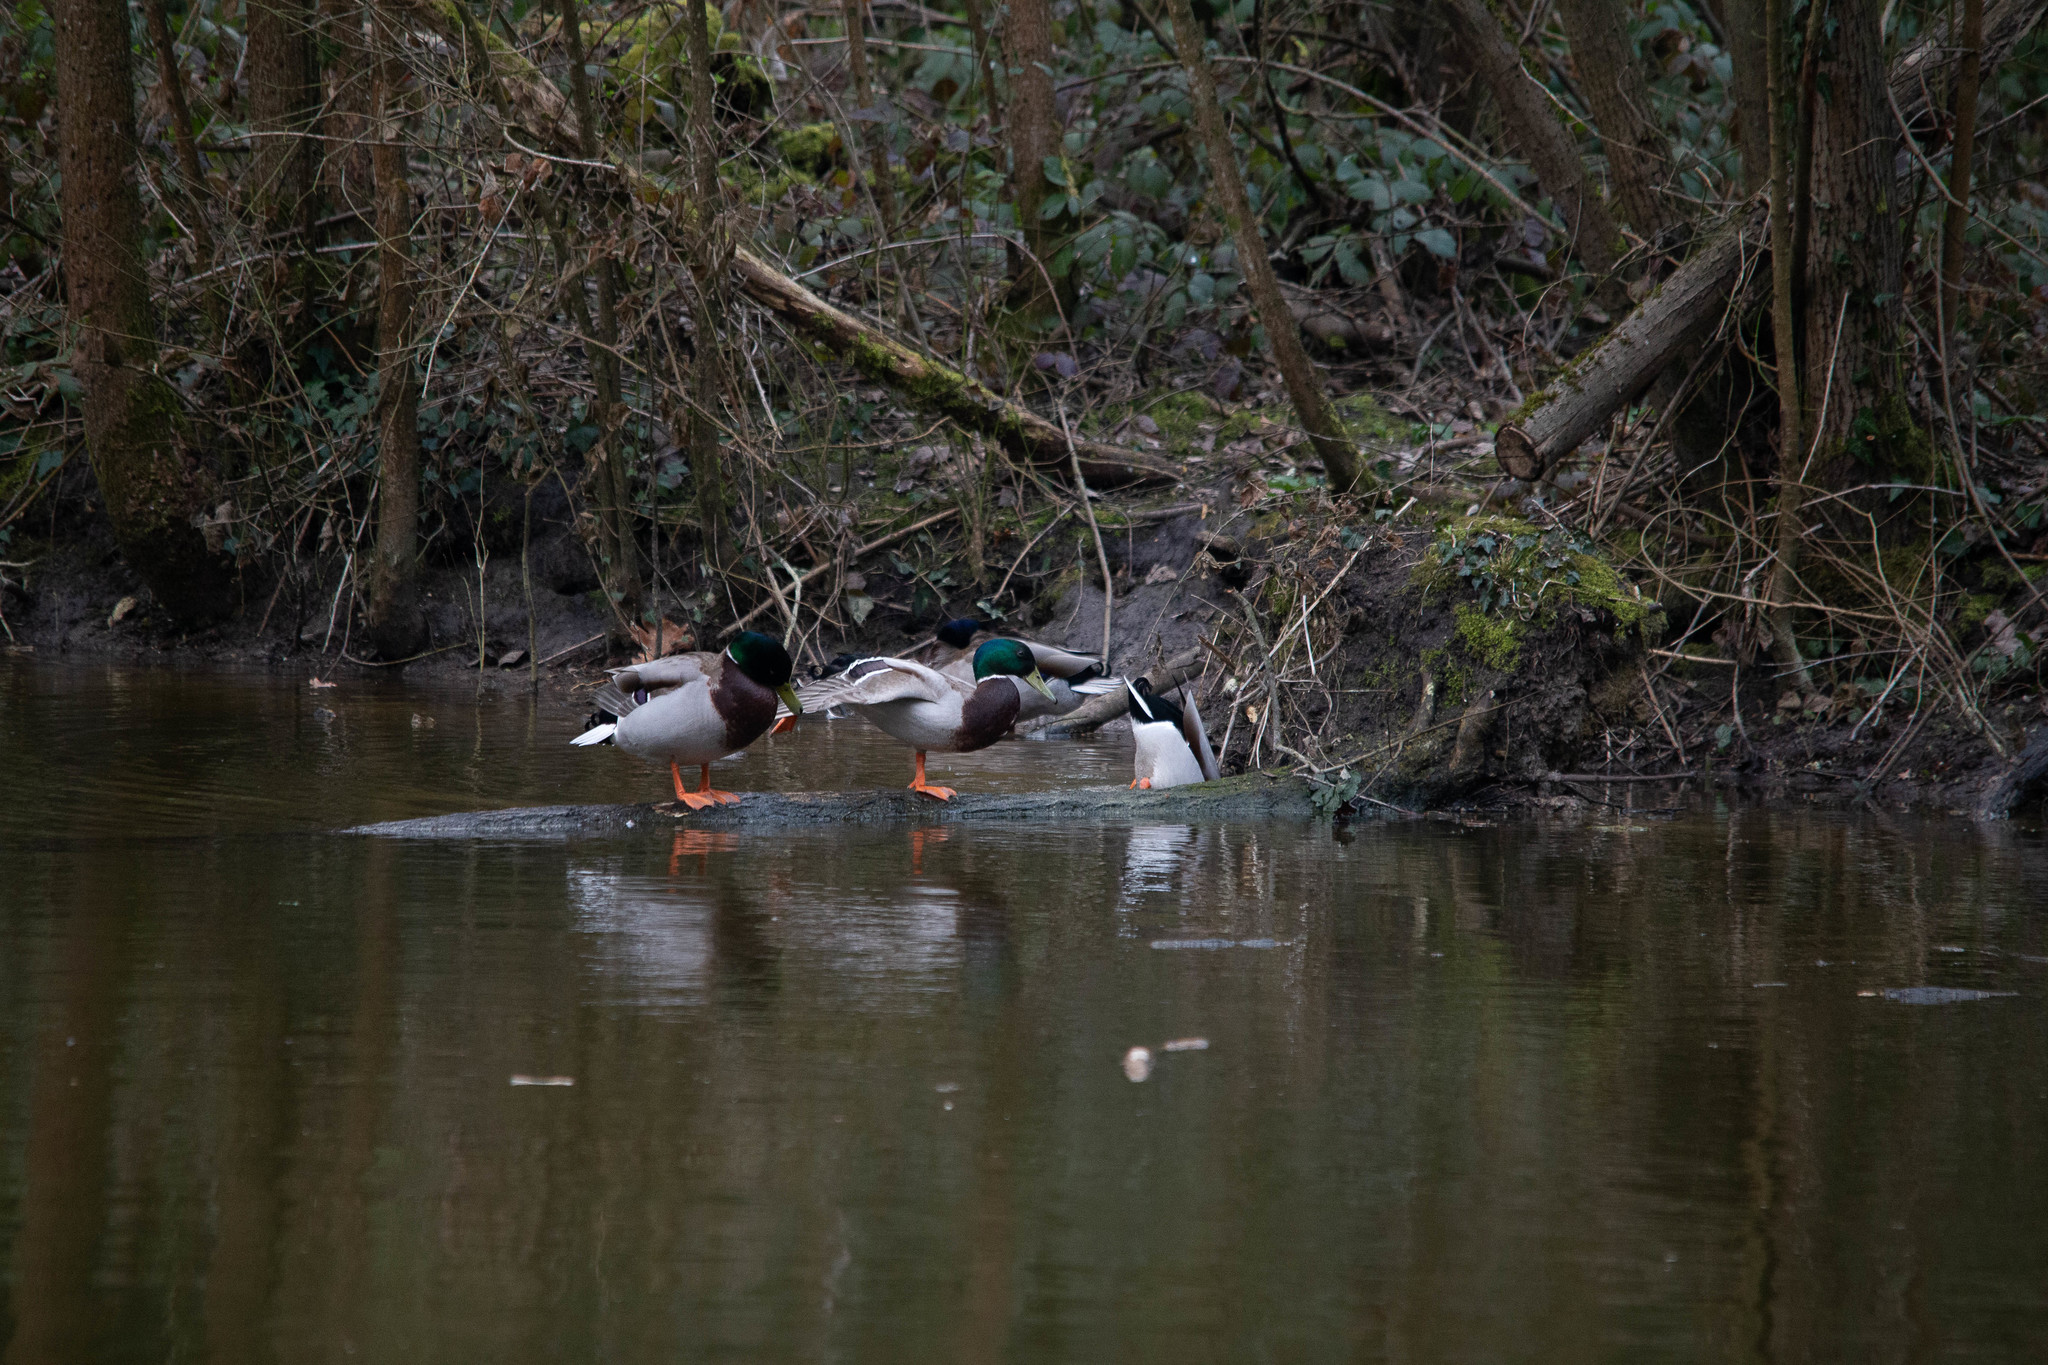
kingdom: Animalia
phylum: Chordata
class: Aves
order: Anseriformes
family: Anatidae
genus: Anas
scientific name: Anas platyrhynchos
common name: Mallard
